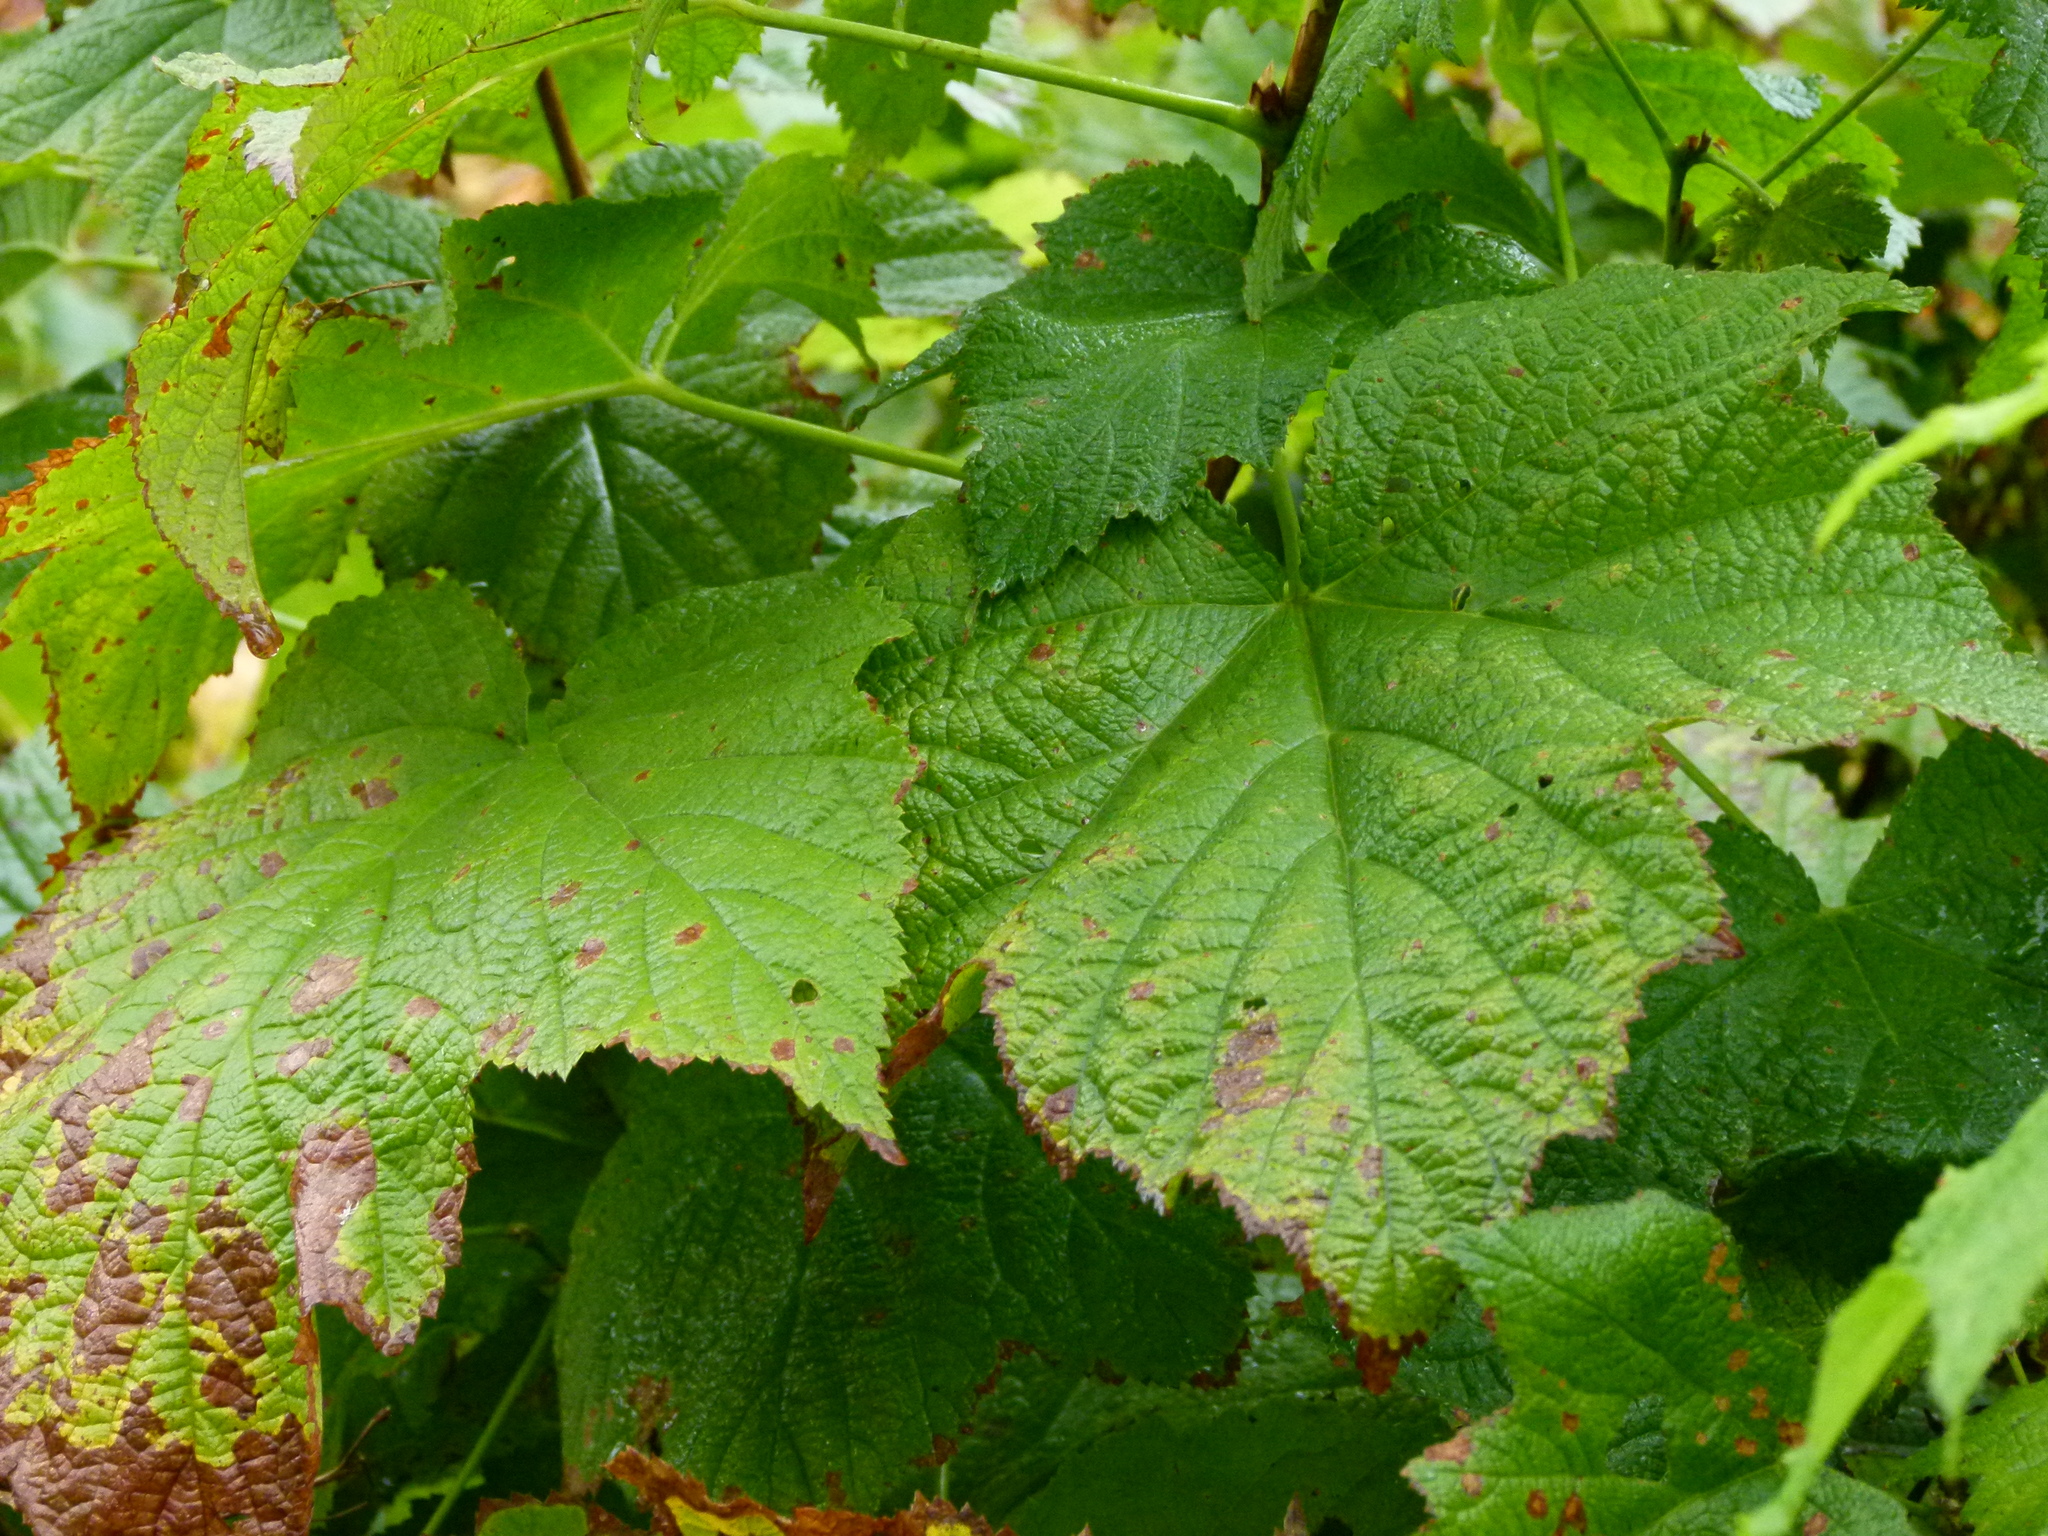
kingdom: Plantae
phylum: Tracheophyta
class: Magnoliopsida
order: Rosales
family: Rosaceae
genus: Rubus
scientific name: Rubus parviflorus
